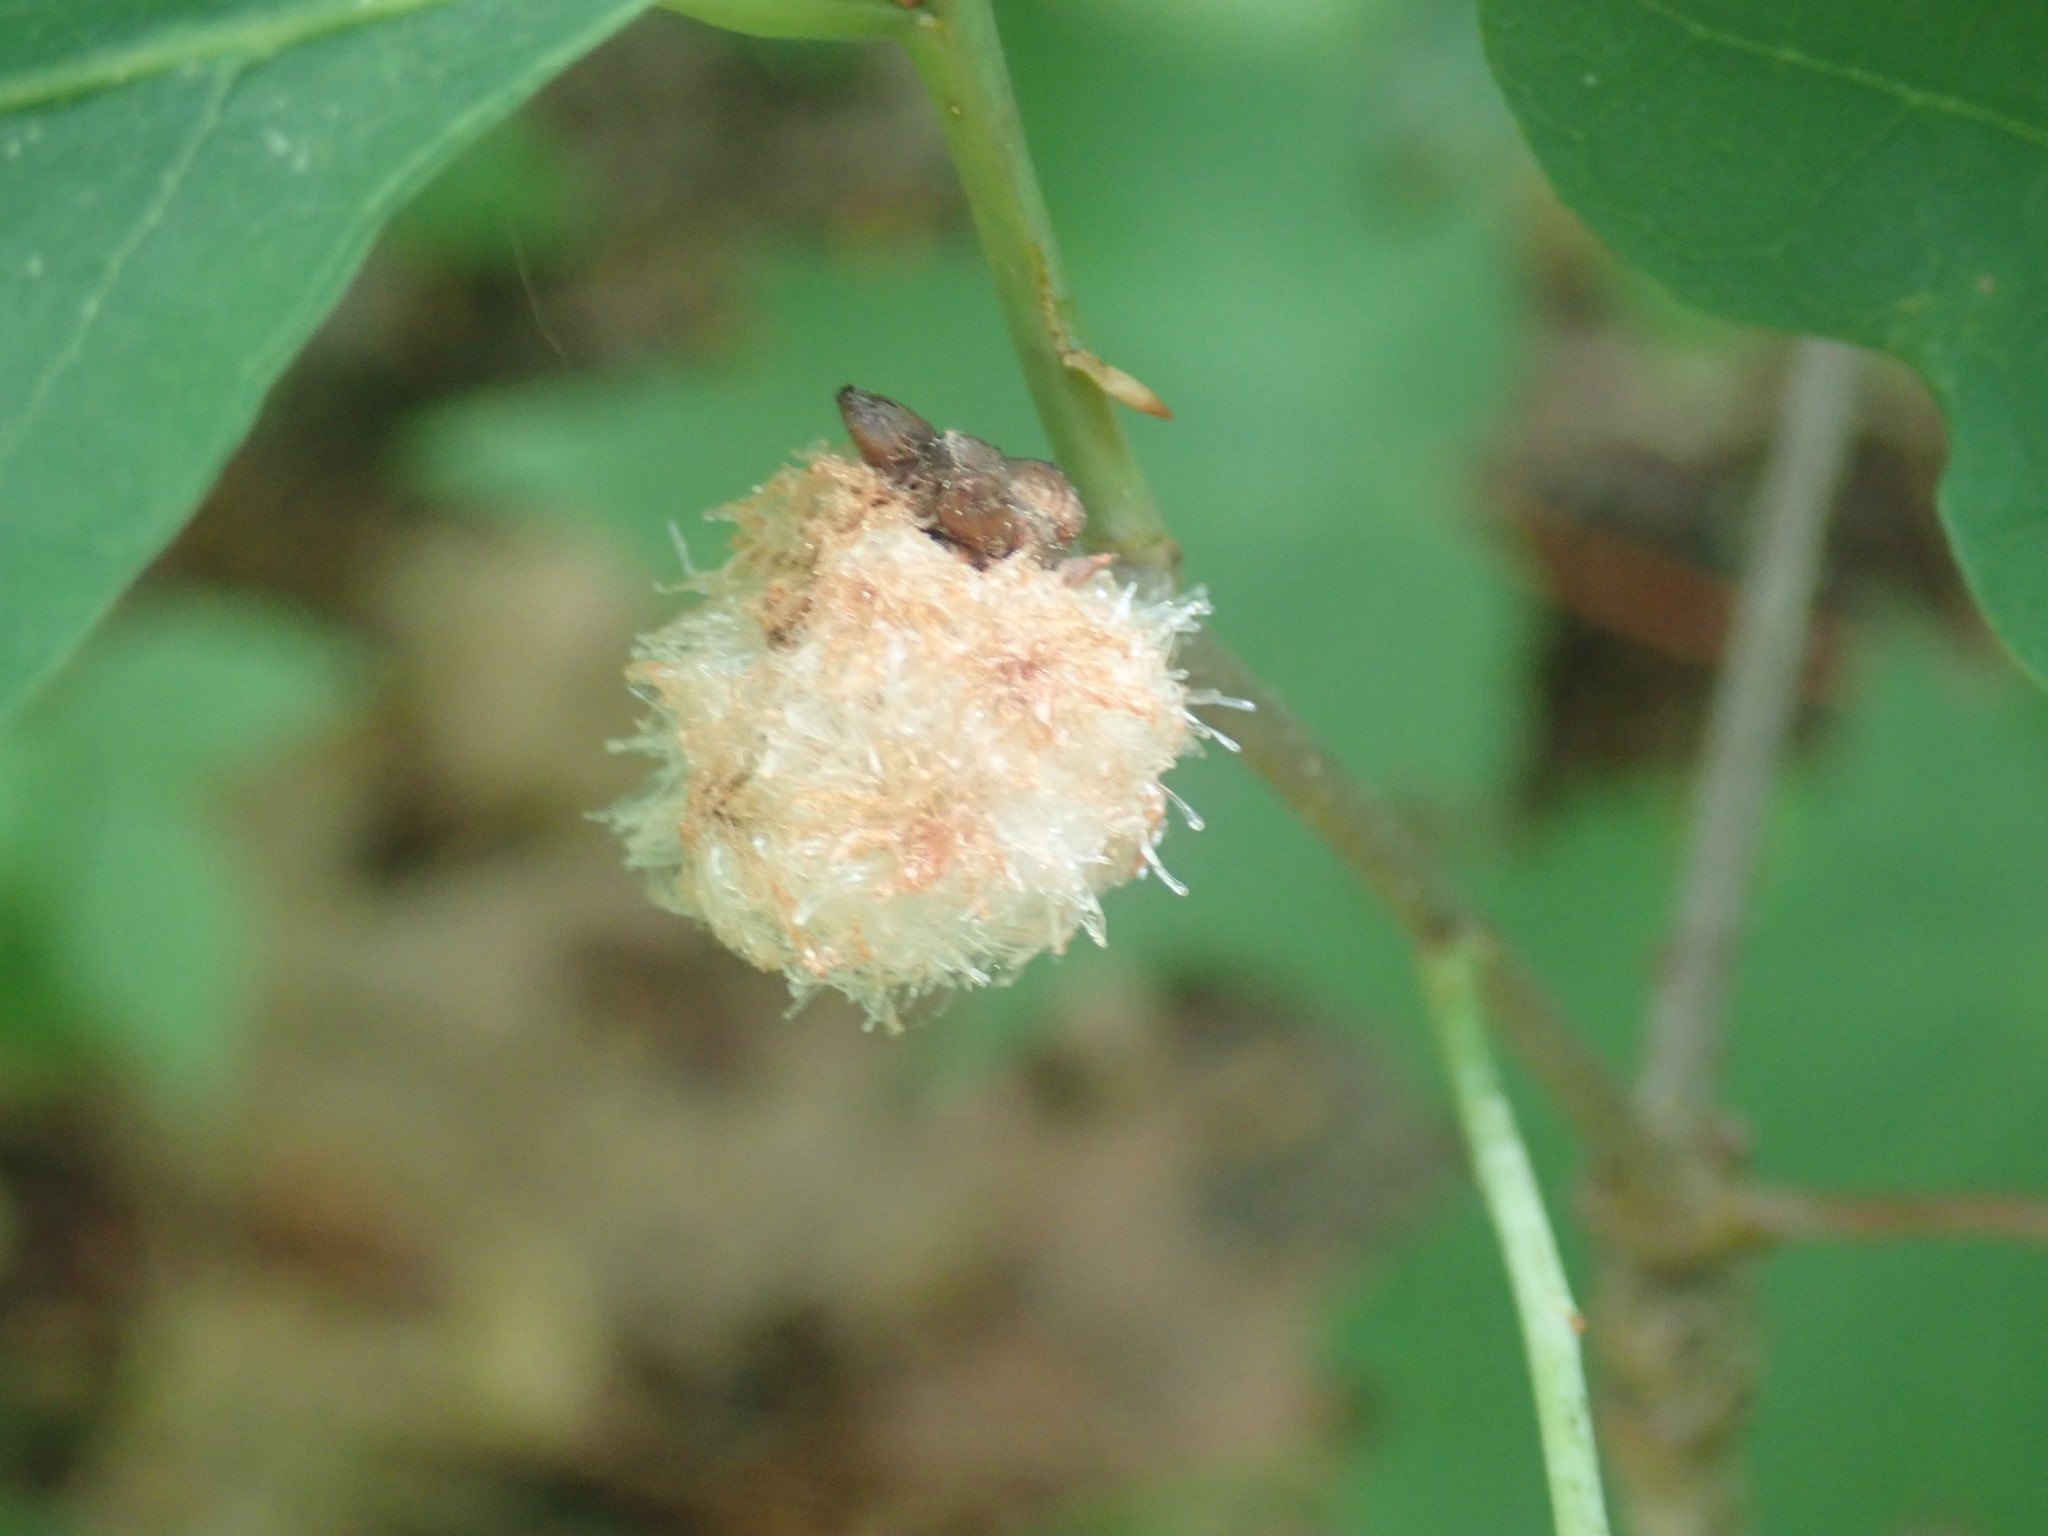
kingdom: Animalia
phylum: Arthropoda
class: Insecta
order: Hymenoptera
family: Cynipidae
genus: Callirhytis
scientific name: Callirhytis
